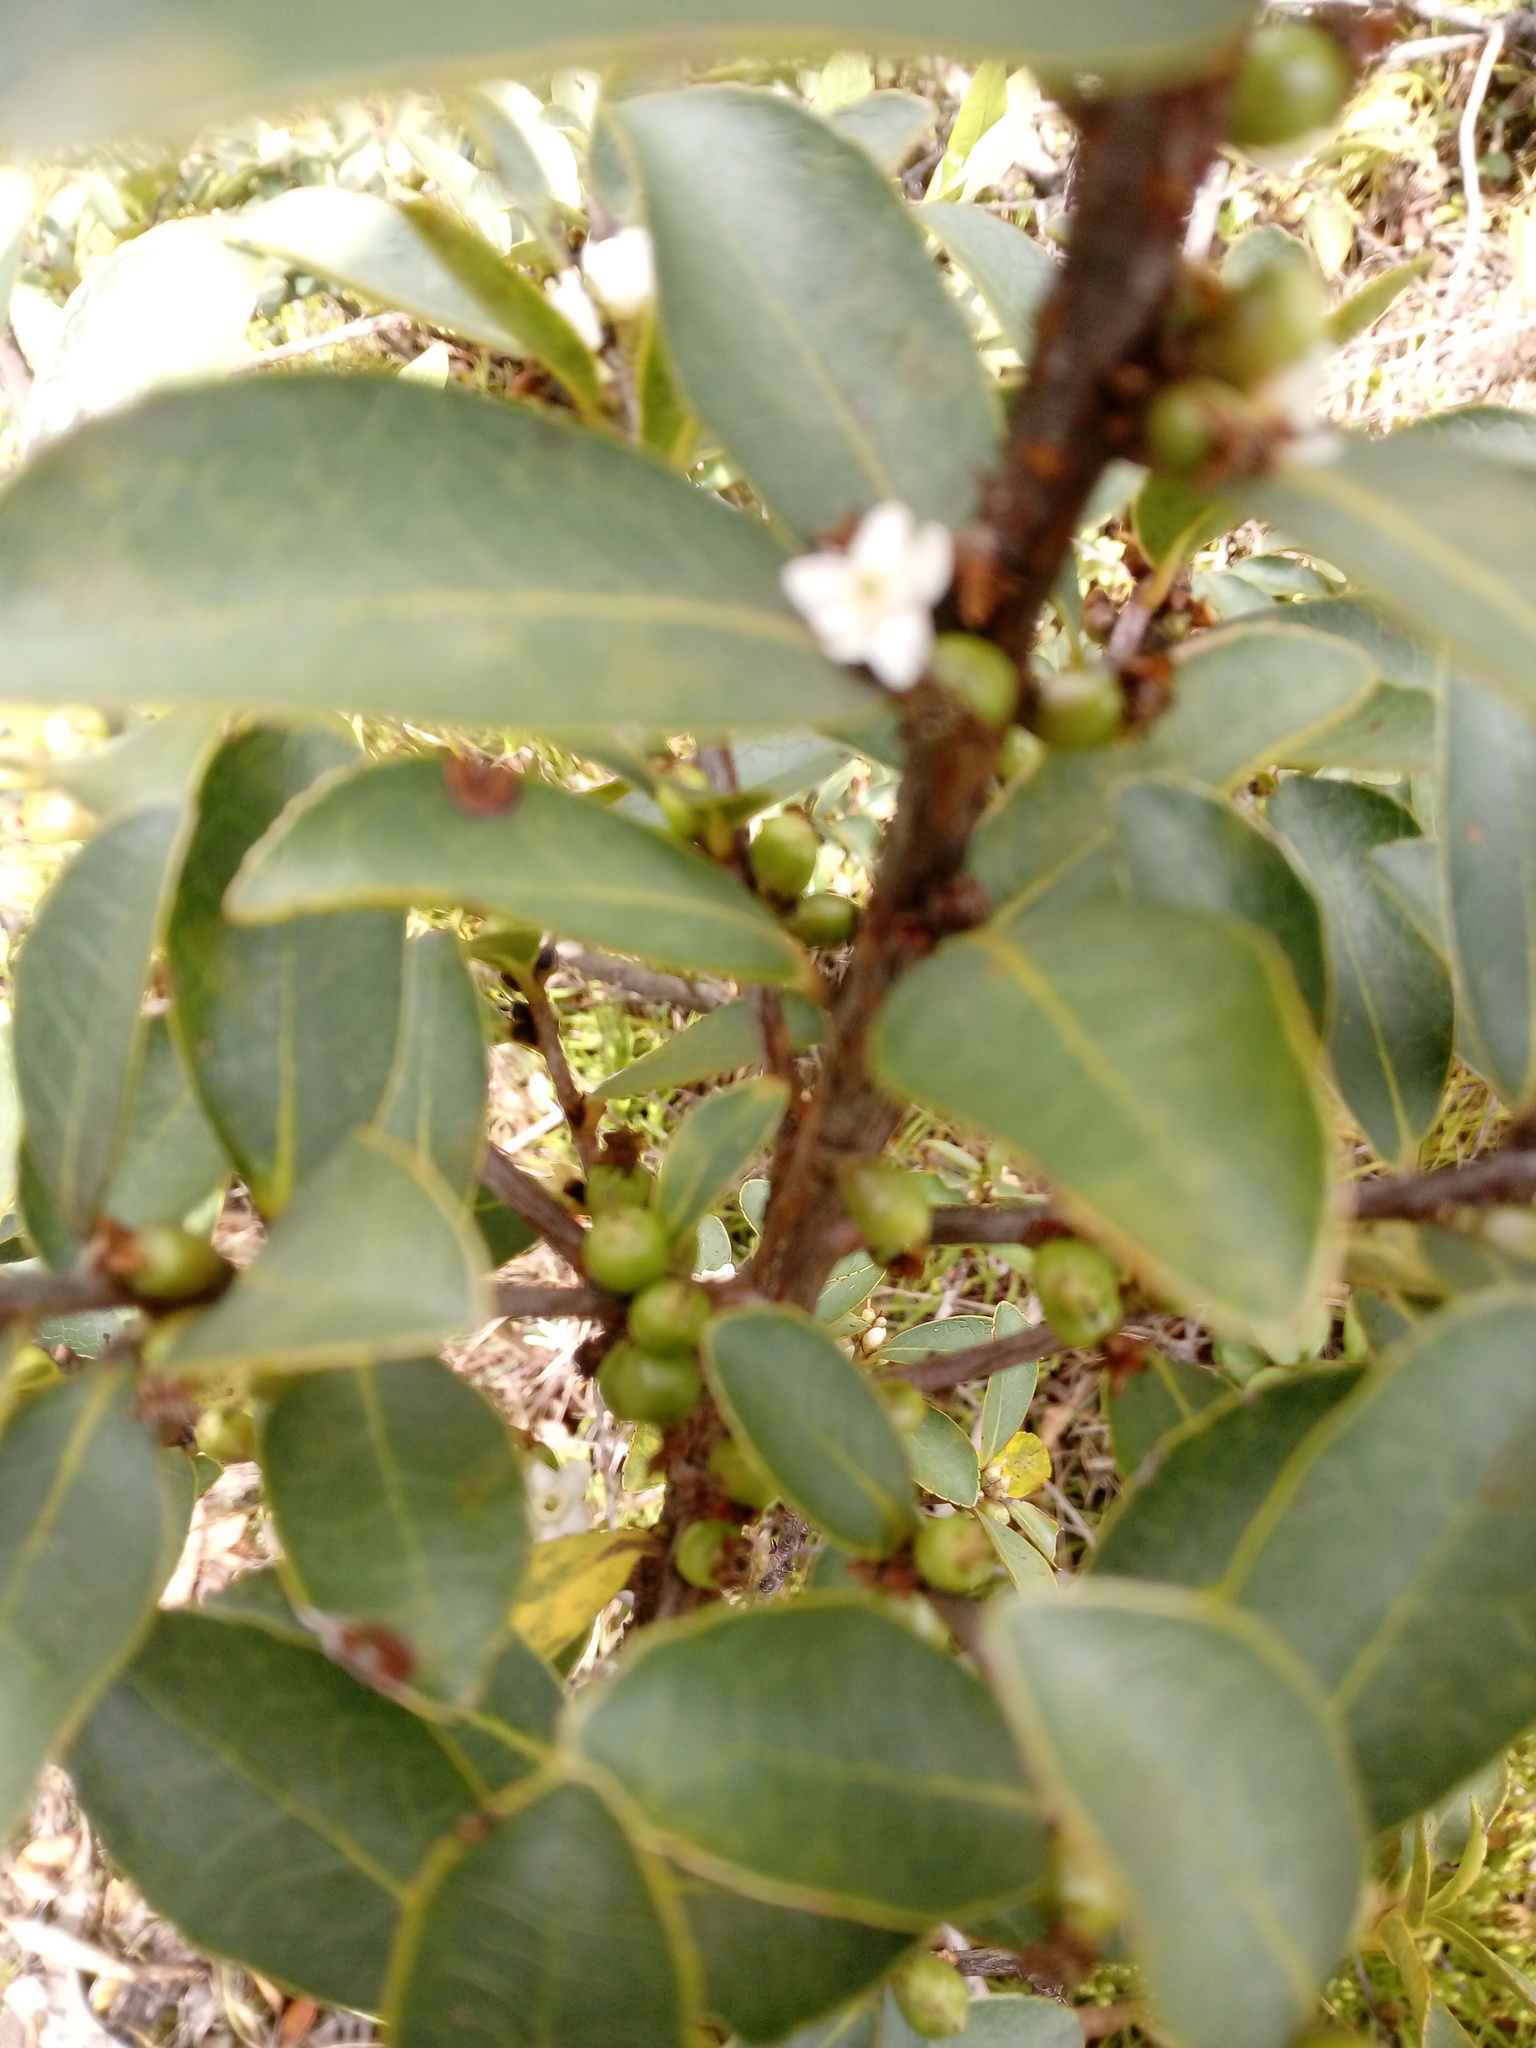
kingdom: Plantae
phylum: Tracheophyta
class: Magnoliopsida
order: Ericales
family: Symplocaceae
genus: Symplocos
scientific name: Symplocos theiformis
